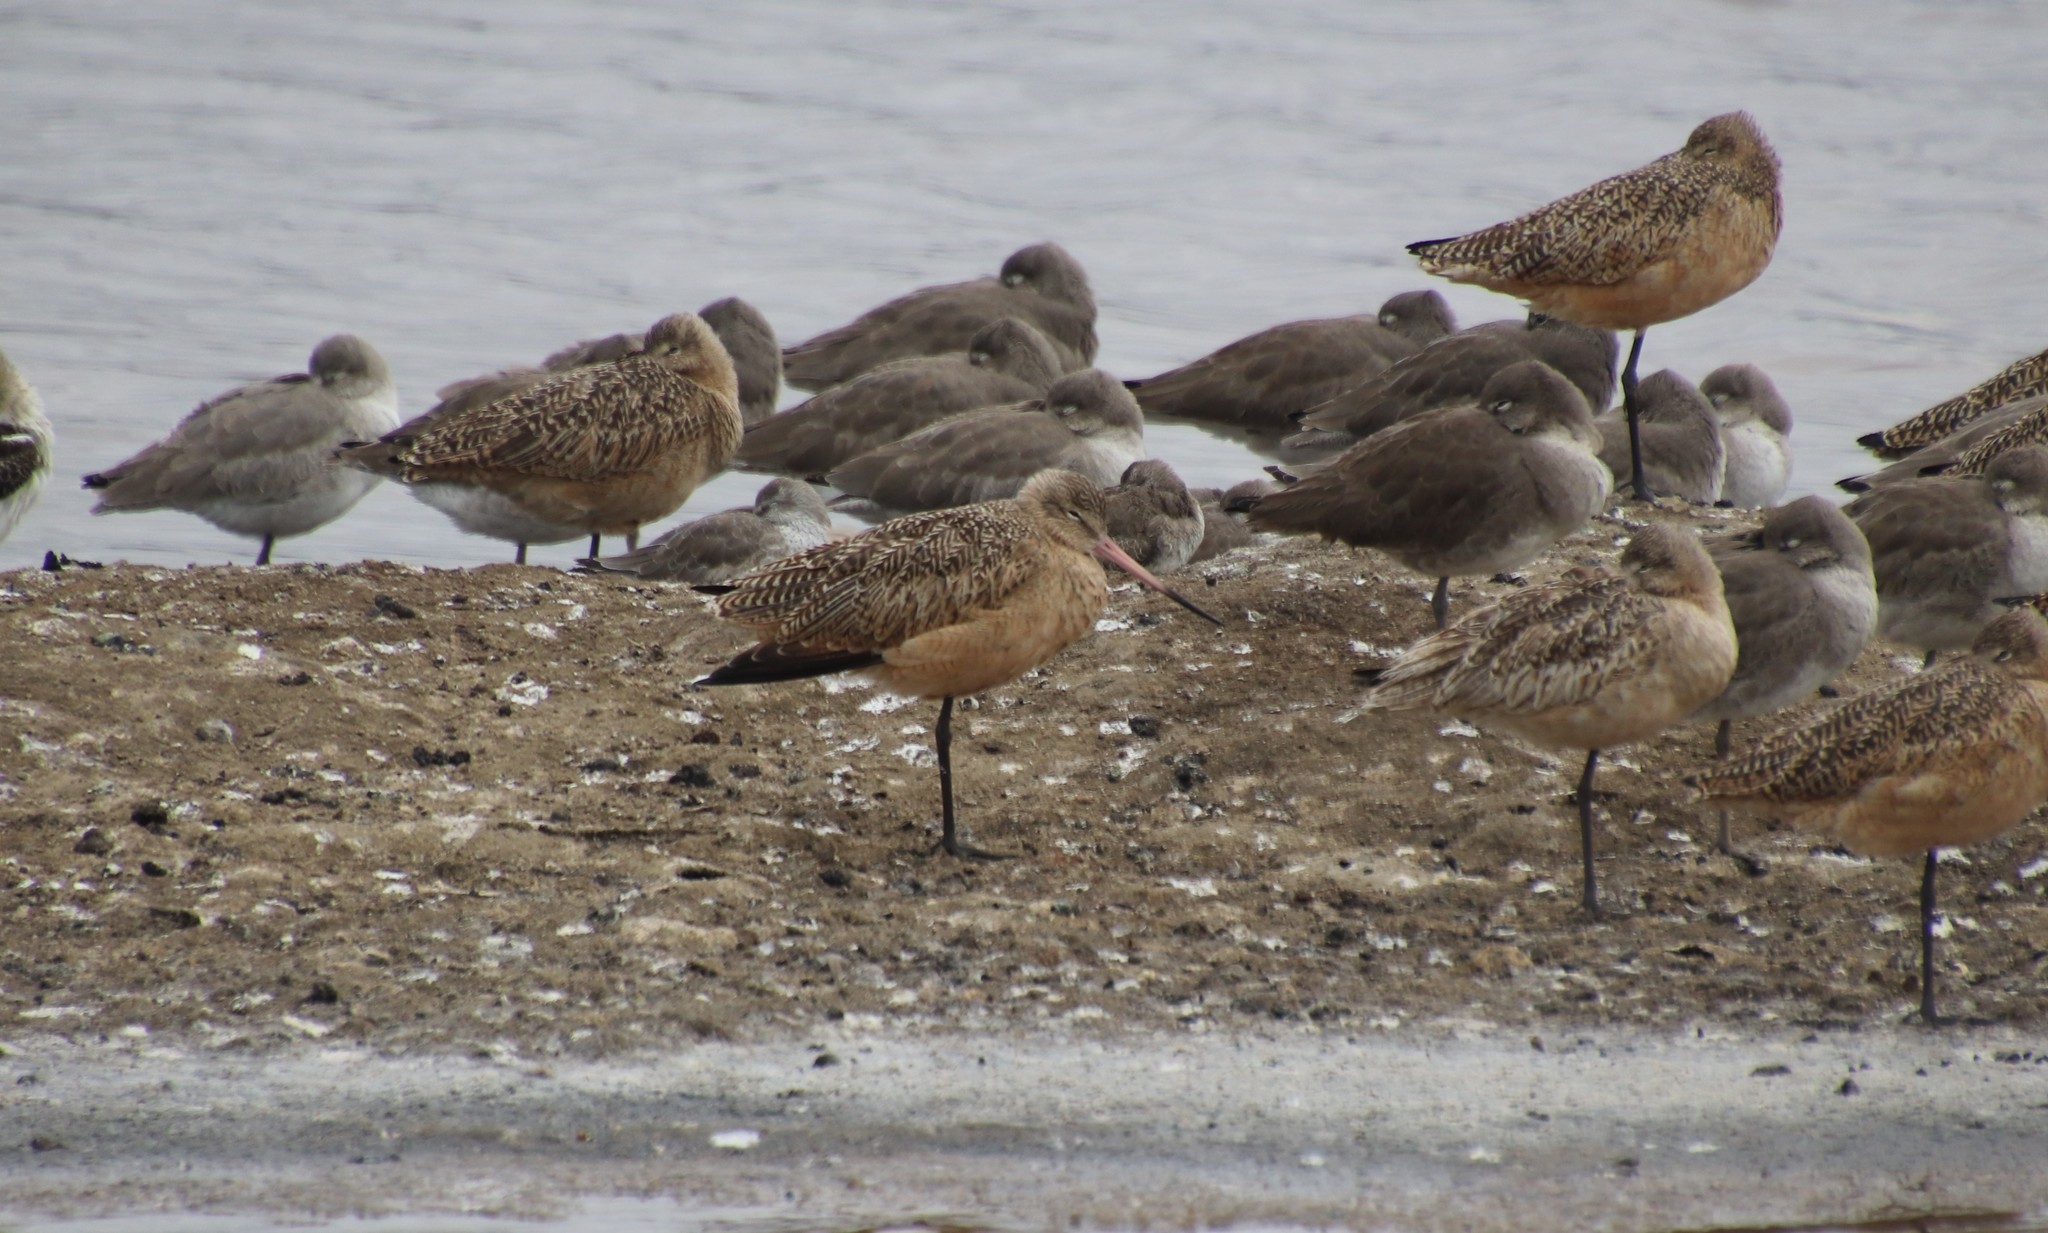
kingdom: Animalia
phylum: Chordata
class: Aves
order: Charadriiformes
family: Scolopacidae
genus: Limosa
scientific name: Limosa fedoa
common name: Marbled godwit
